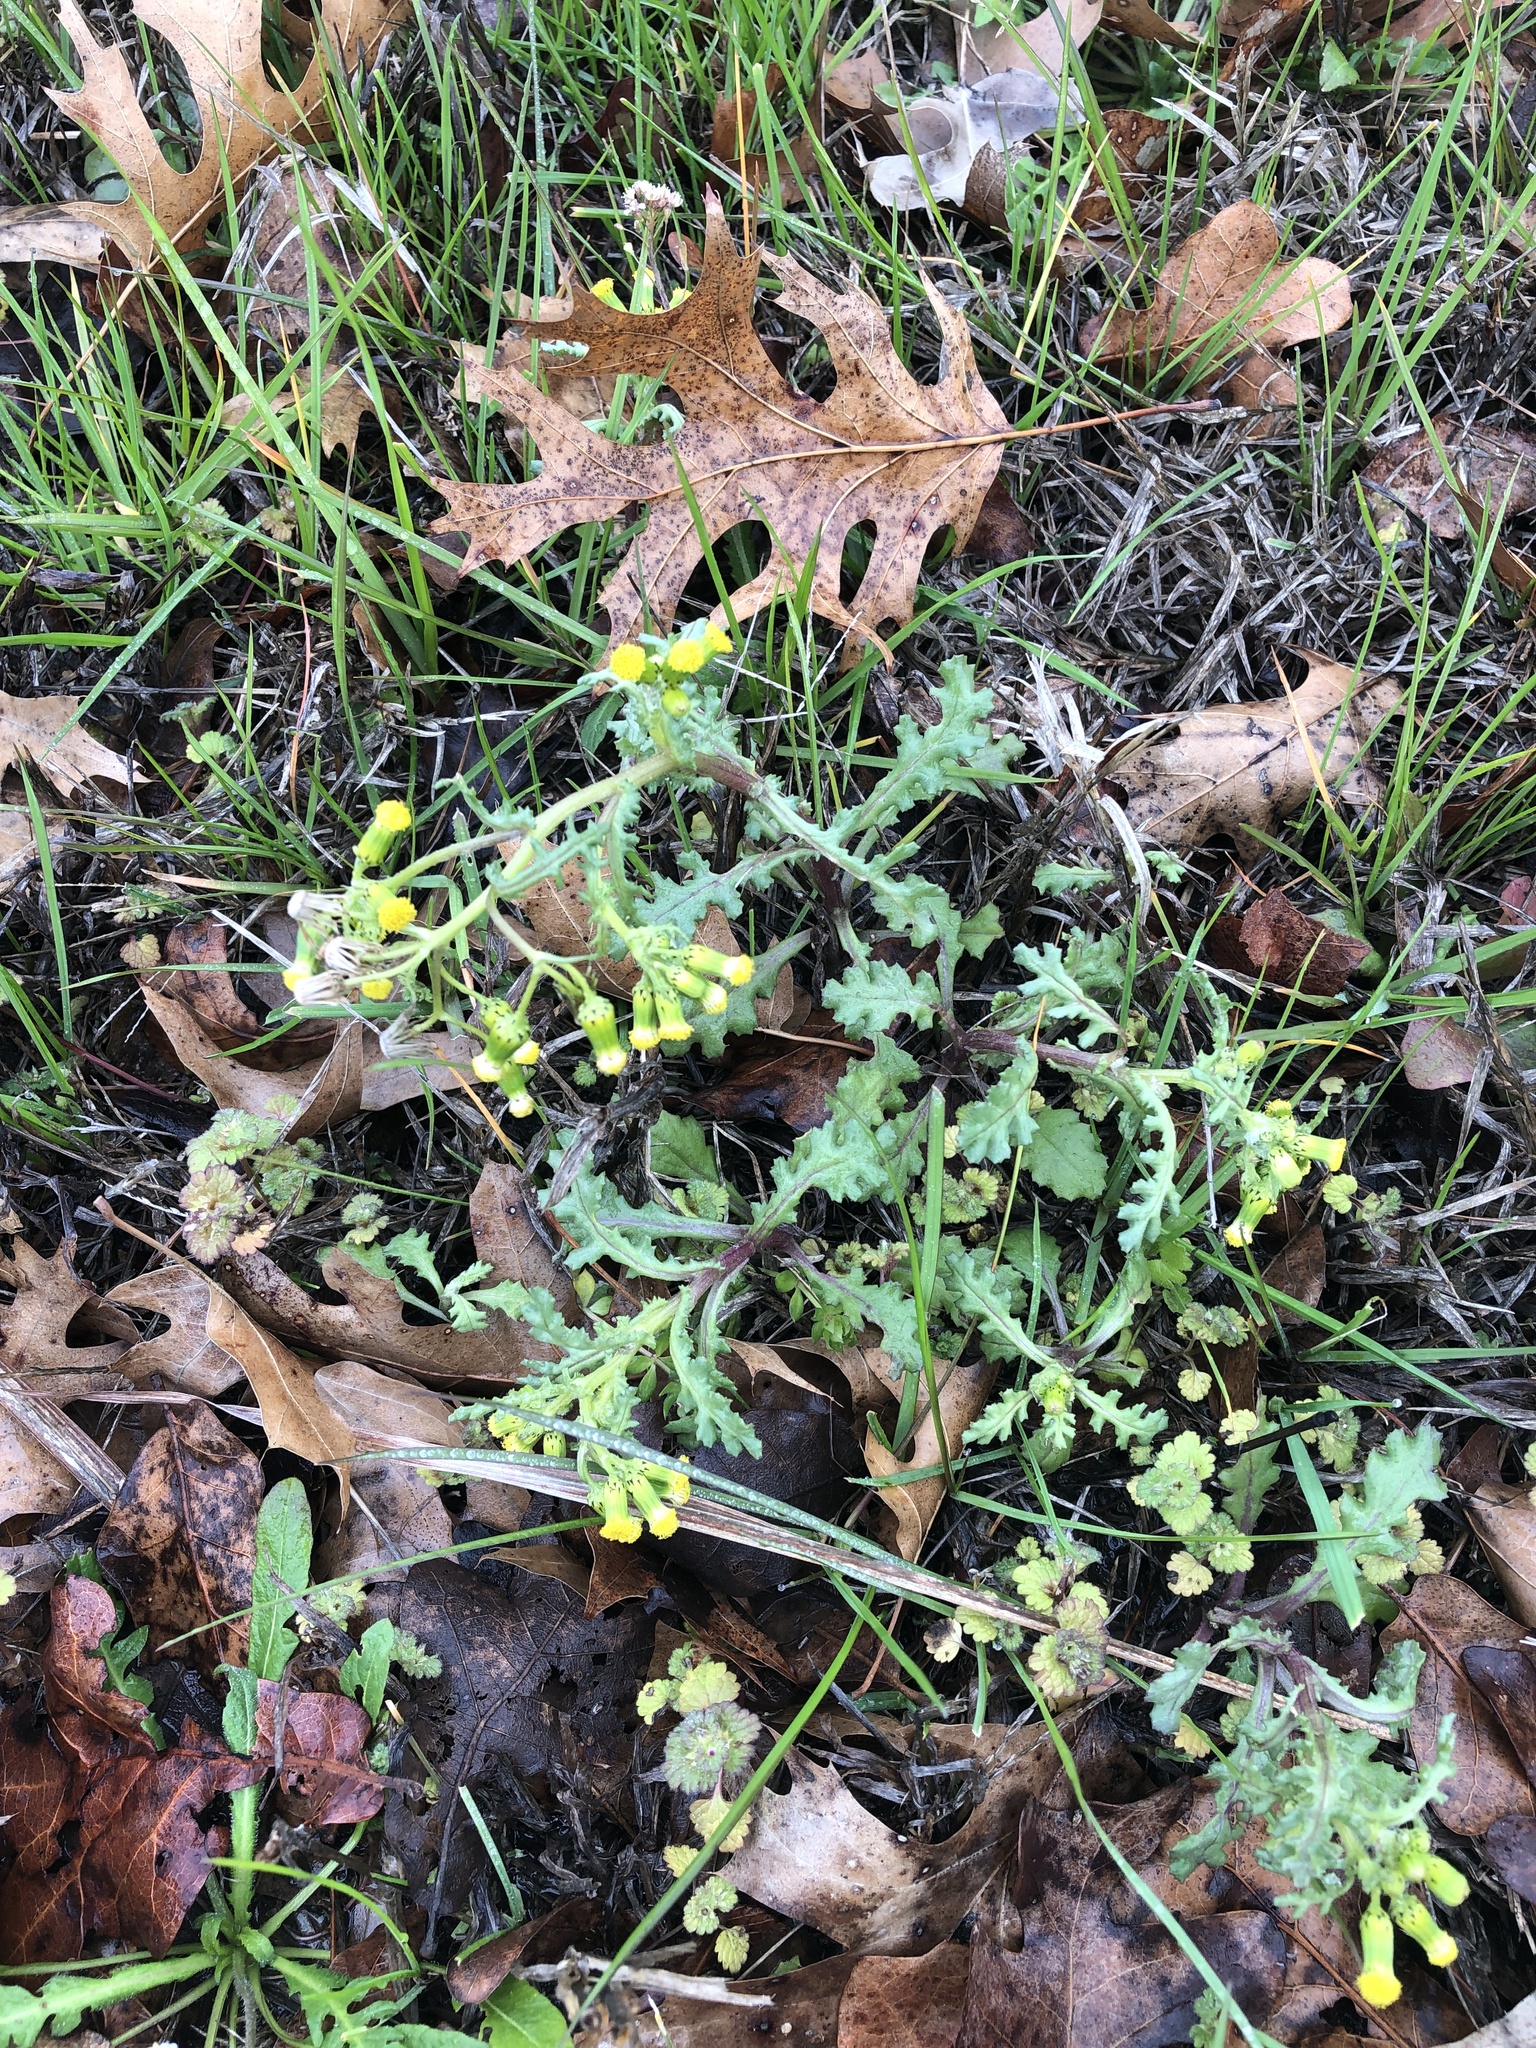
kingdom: Plantae
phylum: Tracheophyta
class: Magnoliopsida
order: Asterales
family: Asteraceae
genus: Senecio
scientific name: Senecio vulgaris
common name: Old-man-in-the-spring
